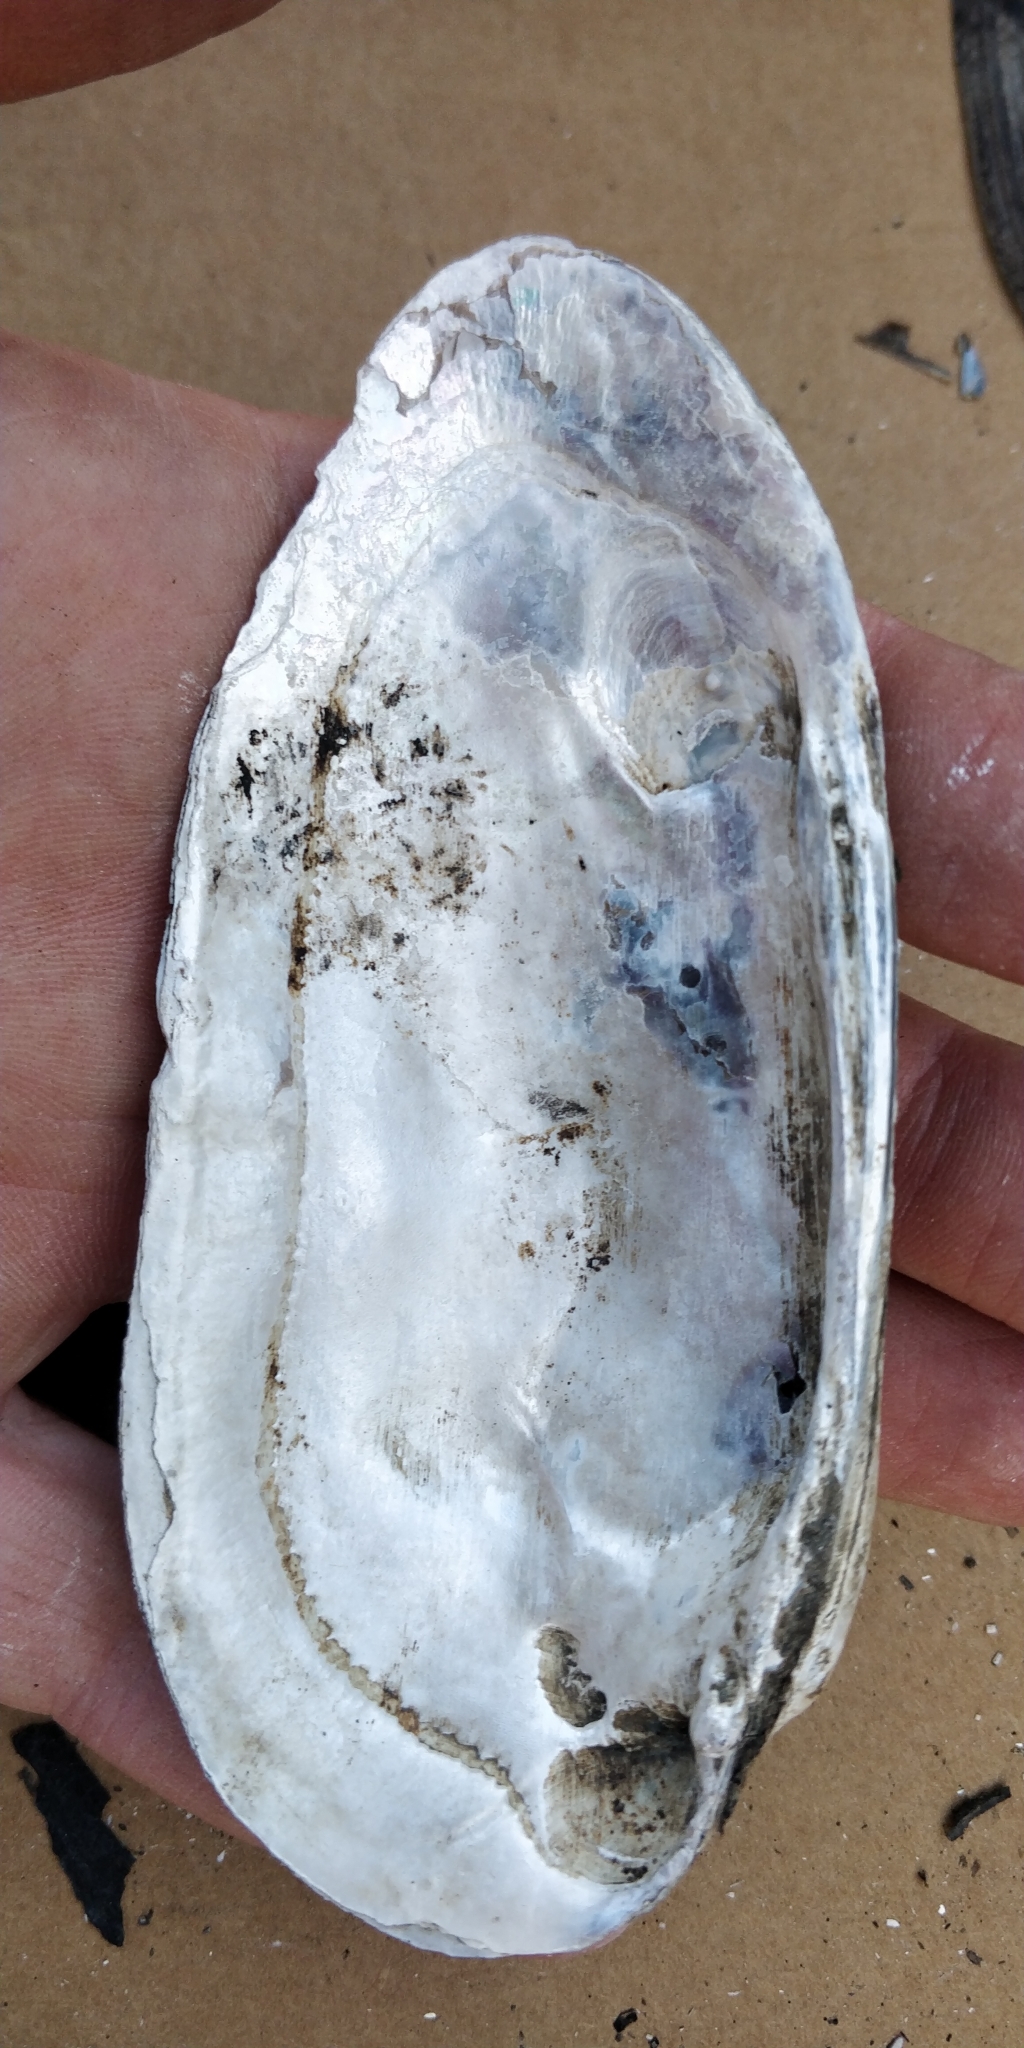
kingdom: Animalia
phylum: Mollusca
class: Bivalvia
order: Unionida
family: Unionidae
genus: Ligumia
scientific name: Ligumia recta
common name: Black sandshell
